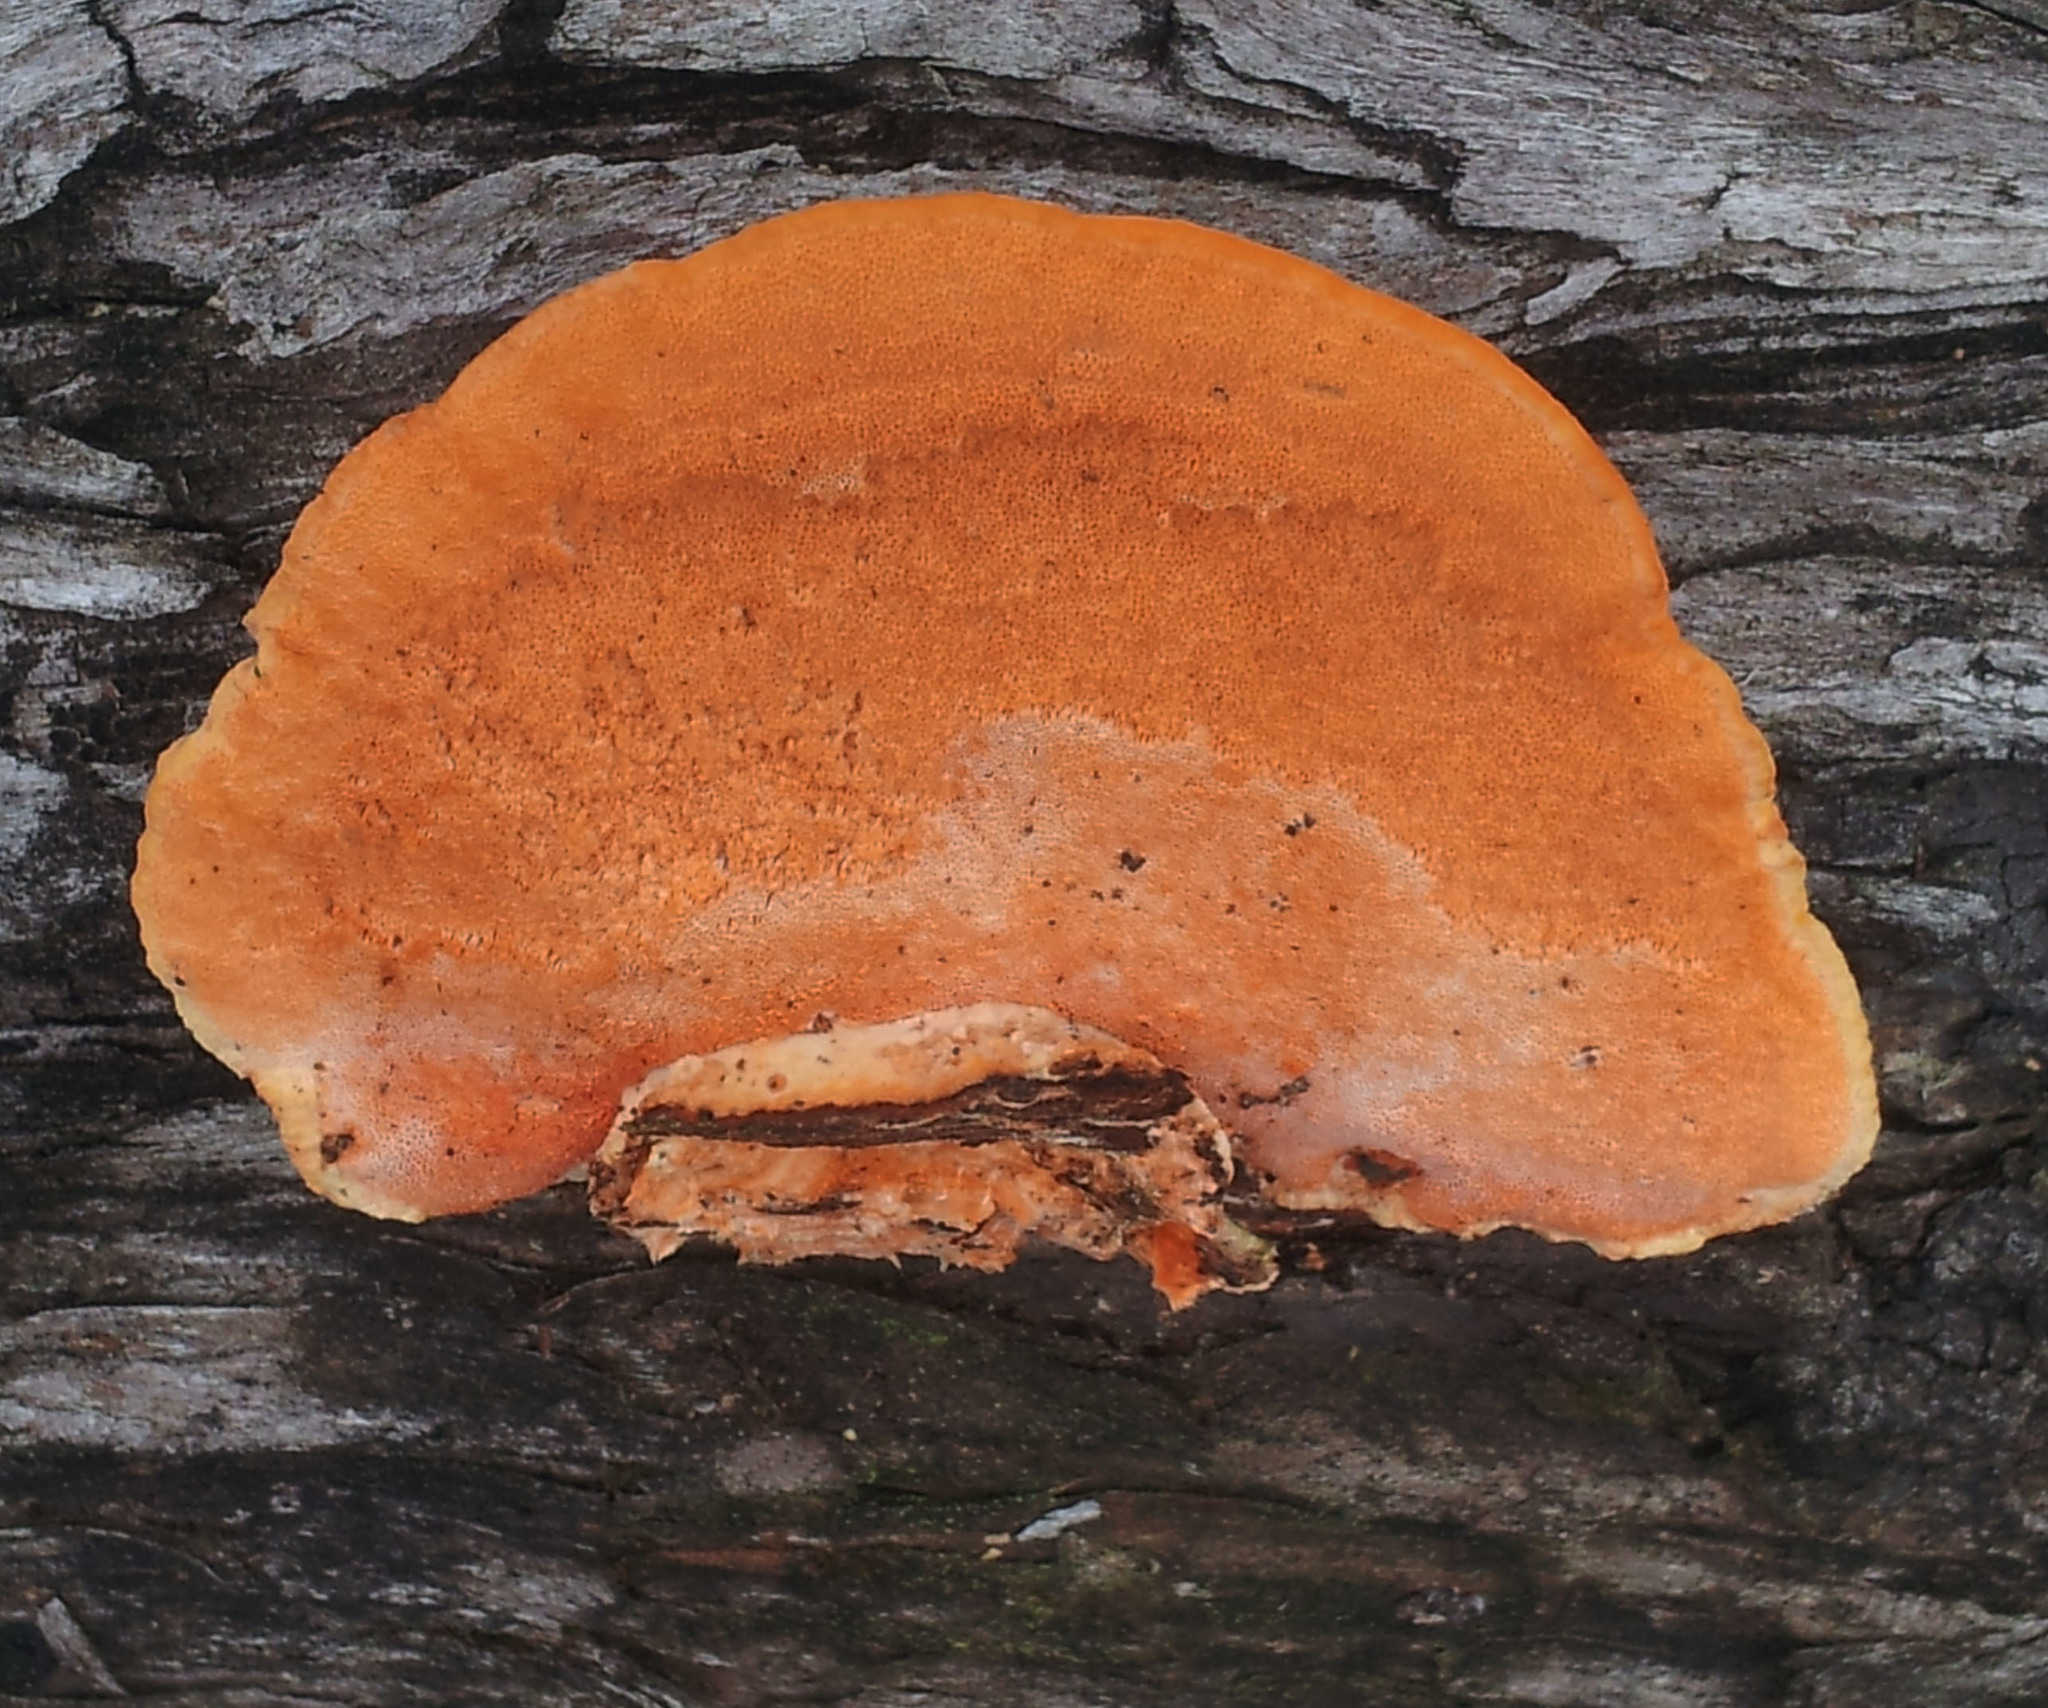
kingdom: Fungi
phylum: Basidiomycota
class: Agaricomycetes
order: Polyporales
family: Polyporaceae
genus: Trametes
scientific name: Trametes coccinea
